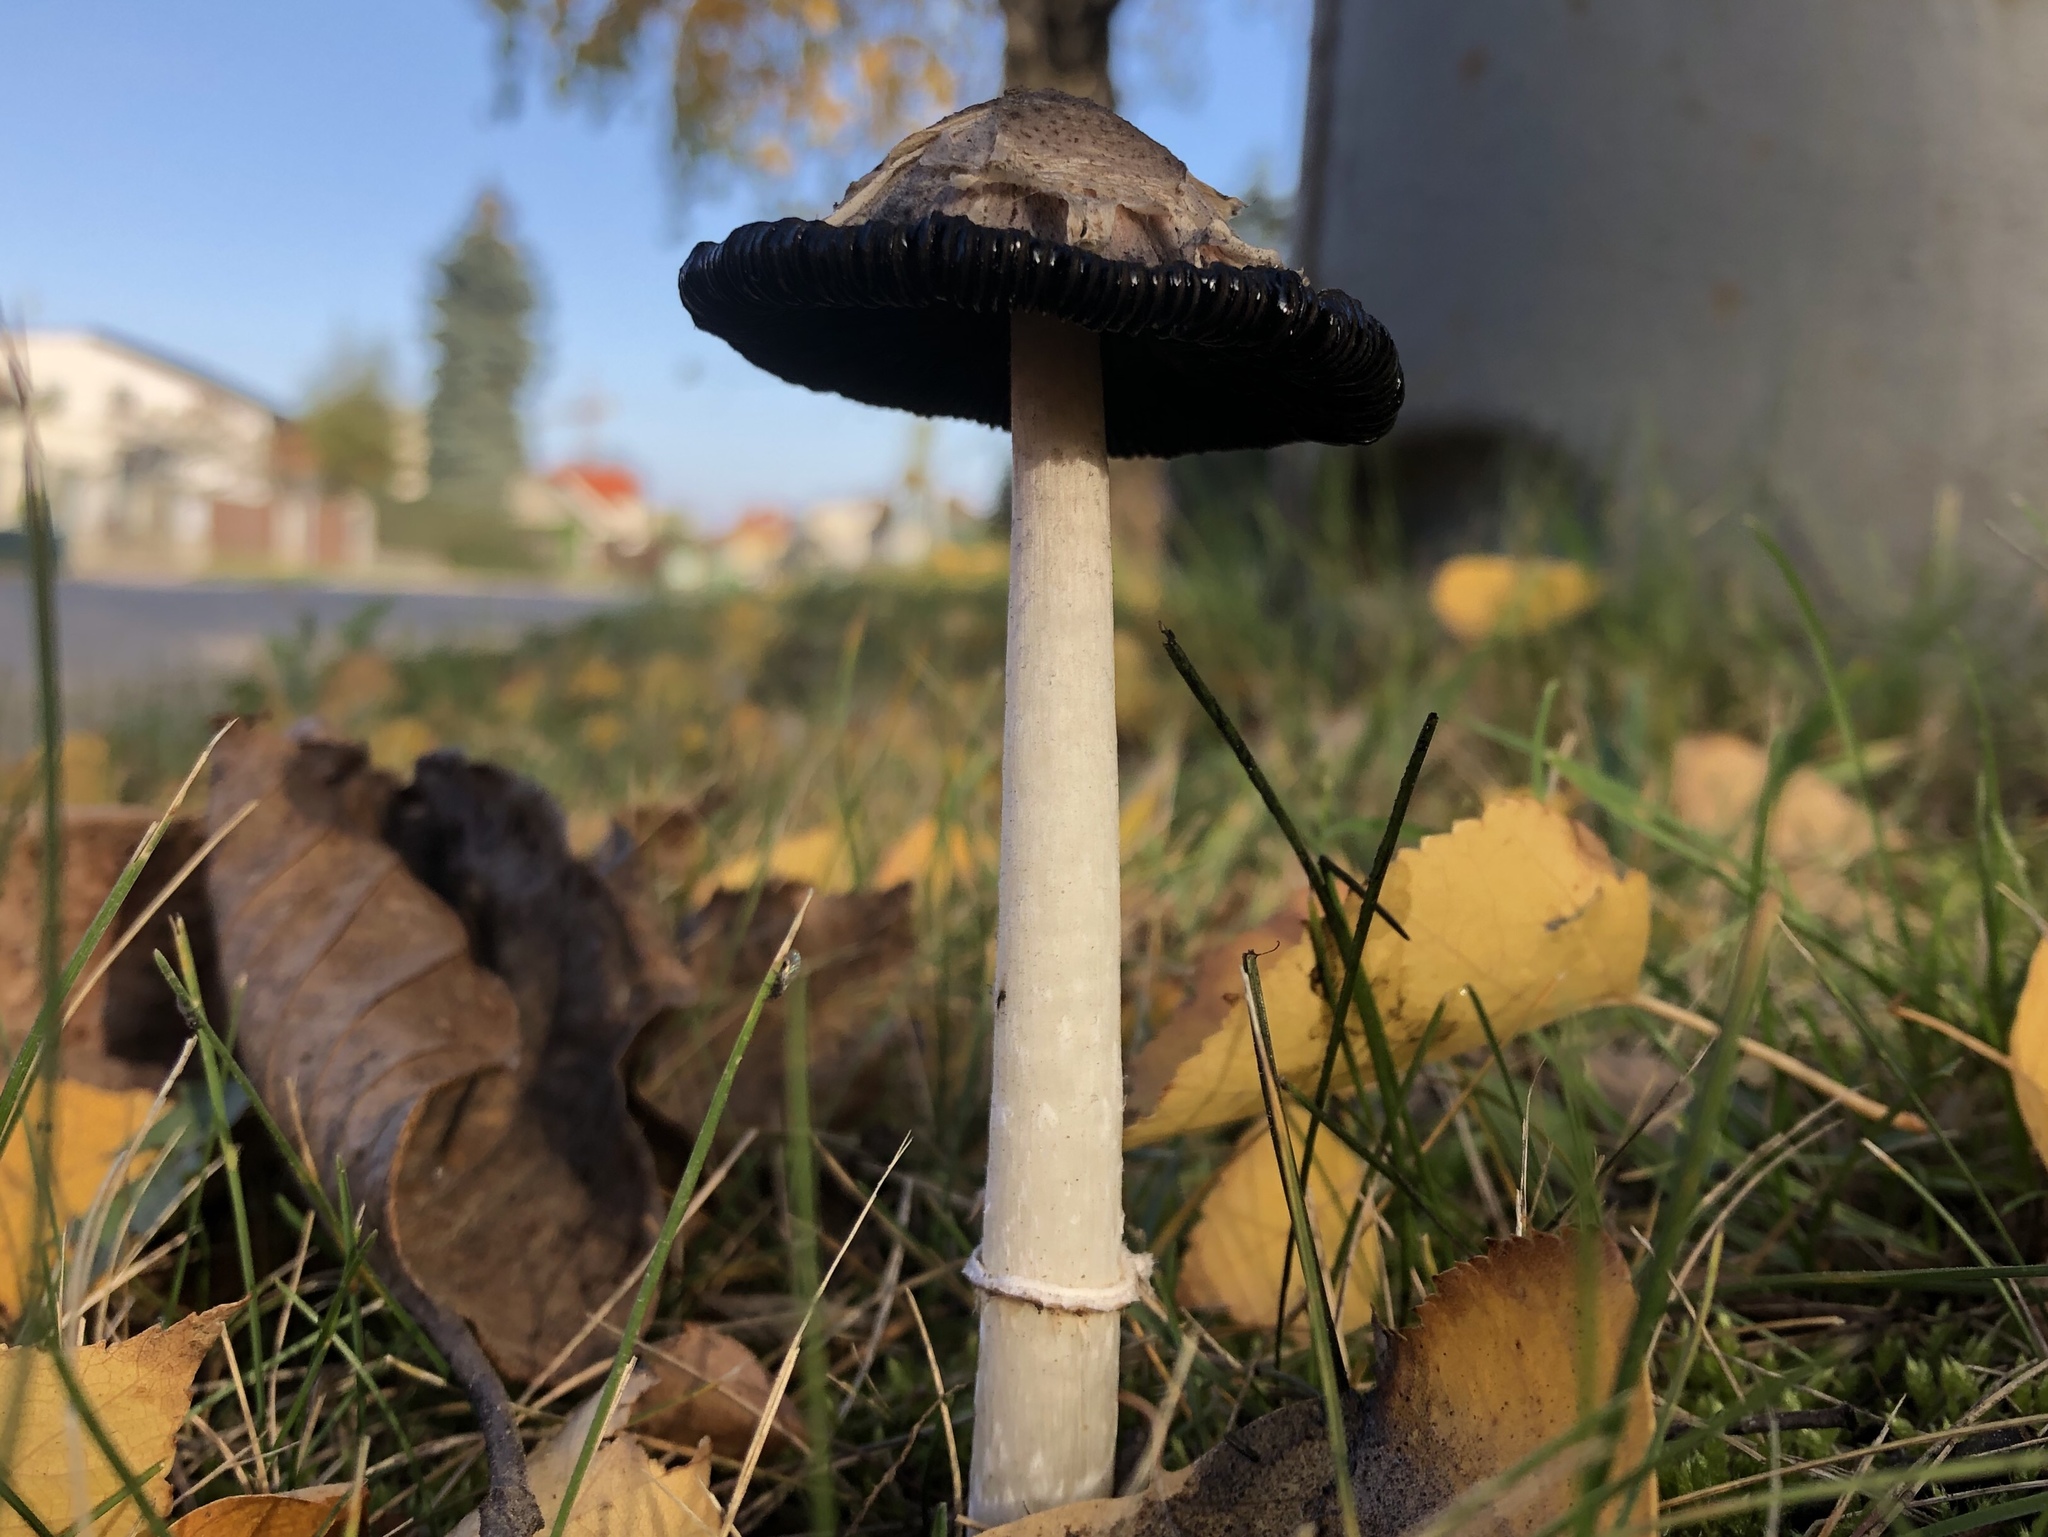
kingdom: Fungi
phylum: Basidiomycota
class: Agaricomycetes
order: Agaricales
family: Agaricaceae
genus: Coprinus
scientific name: Coprinus comatus
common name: Lawyer's wig
